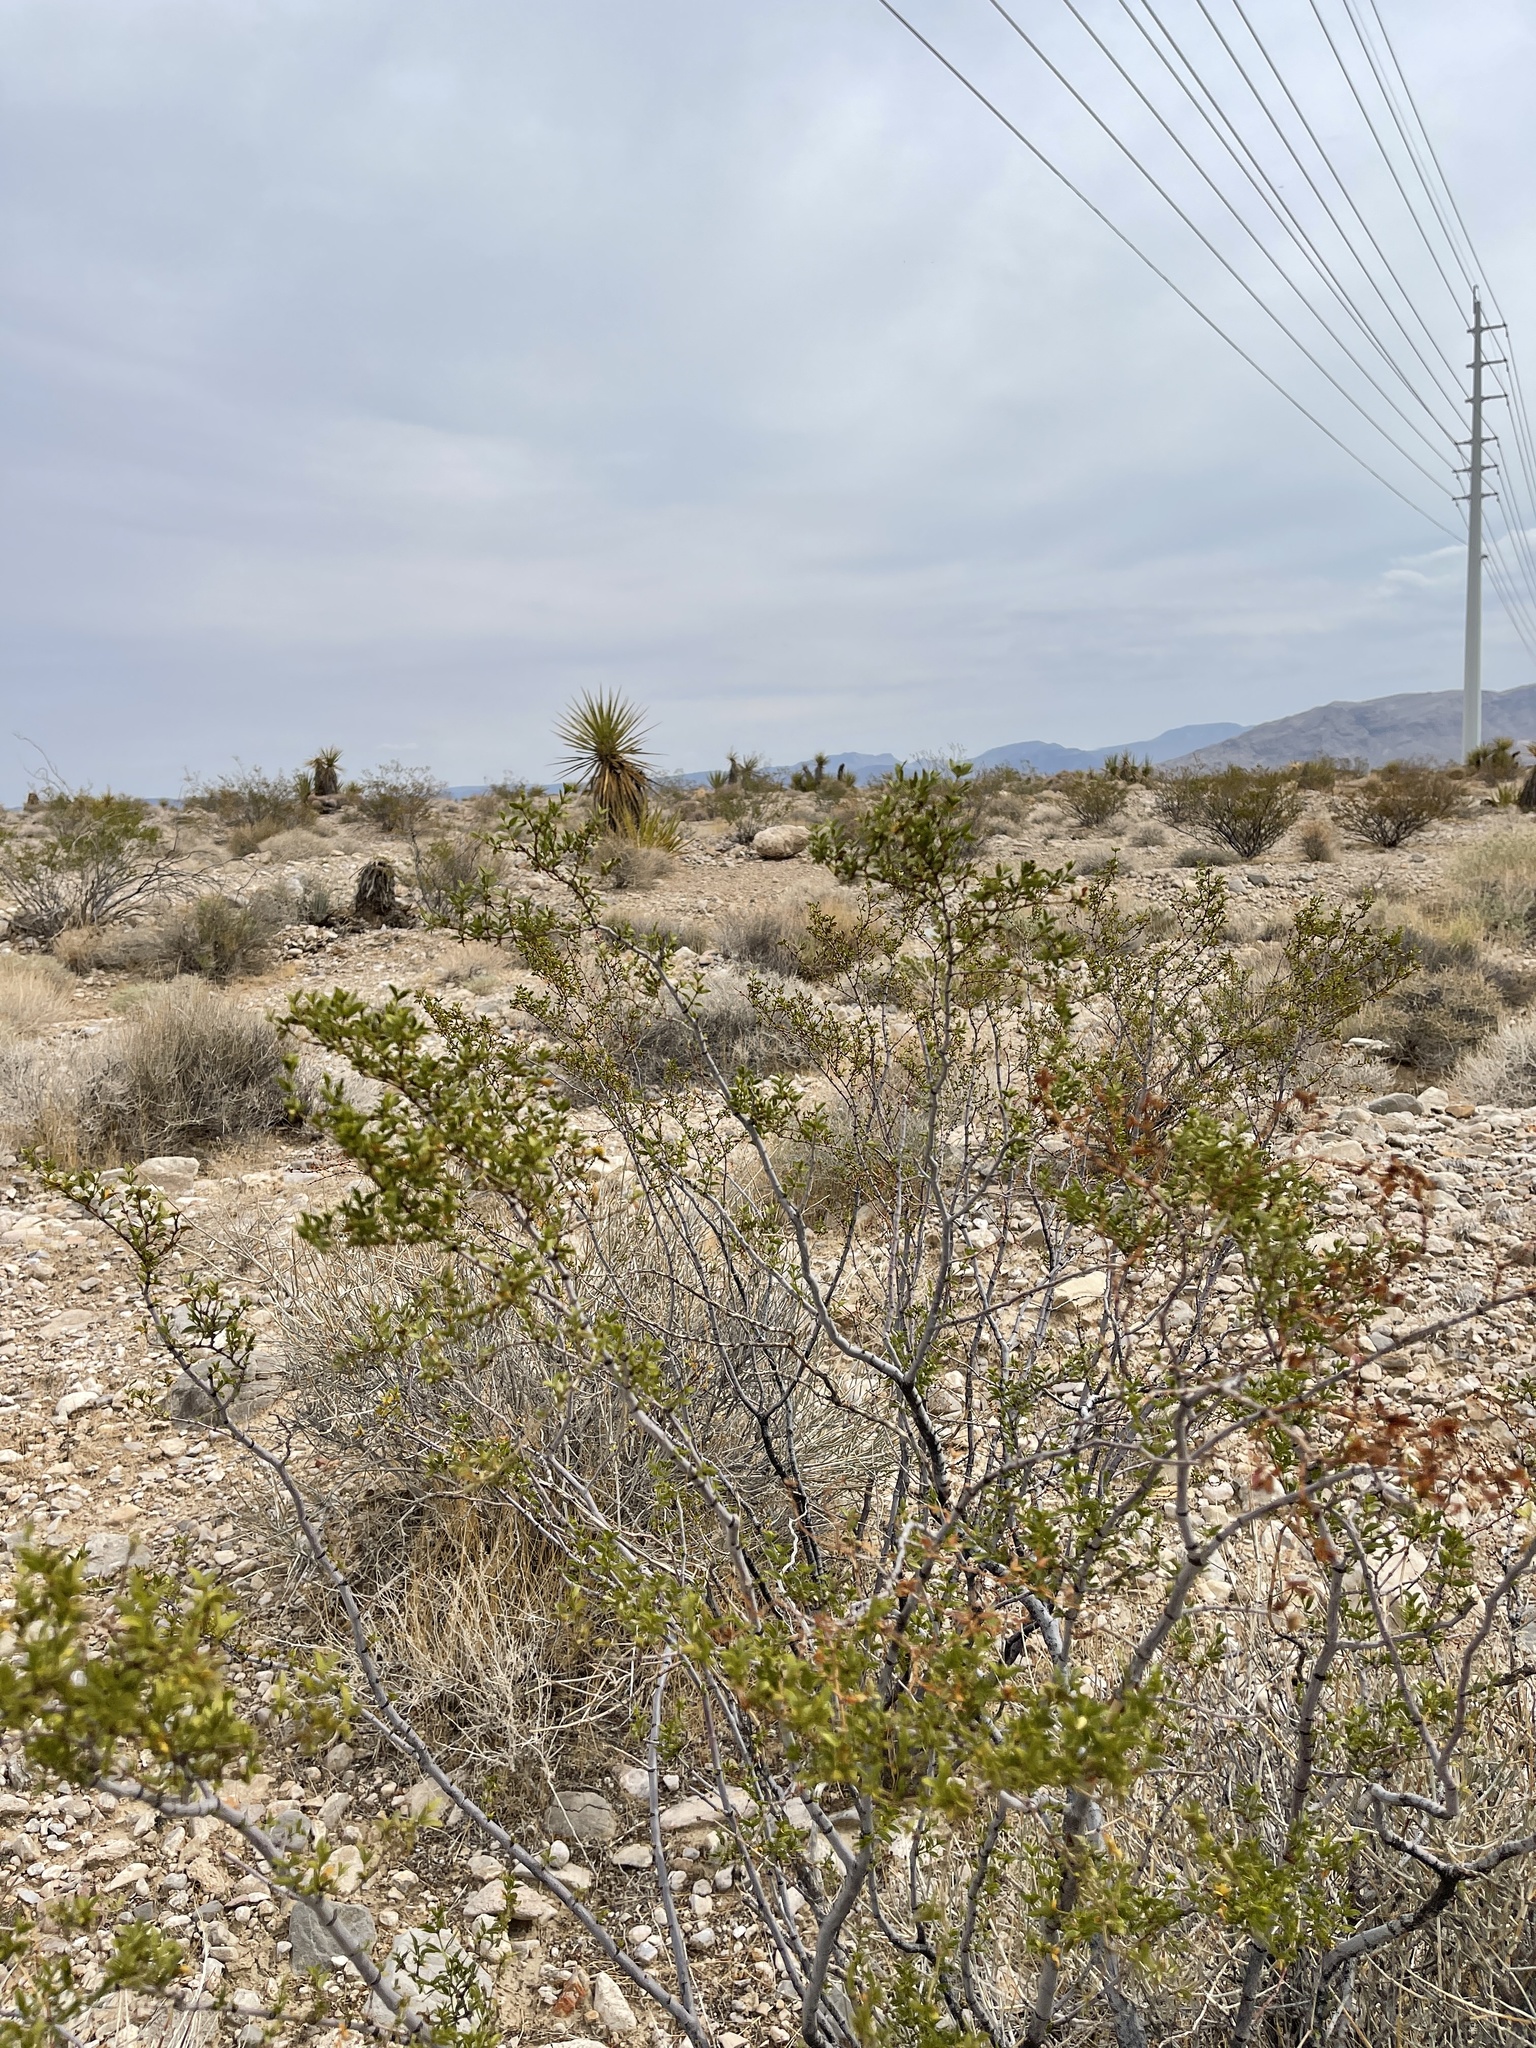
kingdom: Plantae
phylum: Tracheophyta
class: Magnoliopsida
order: Zygophyllales
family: Zygophyllaceae
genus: Larrea
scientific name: Larrea tridentata
